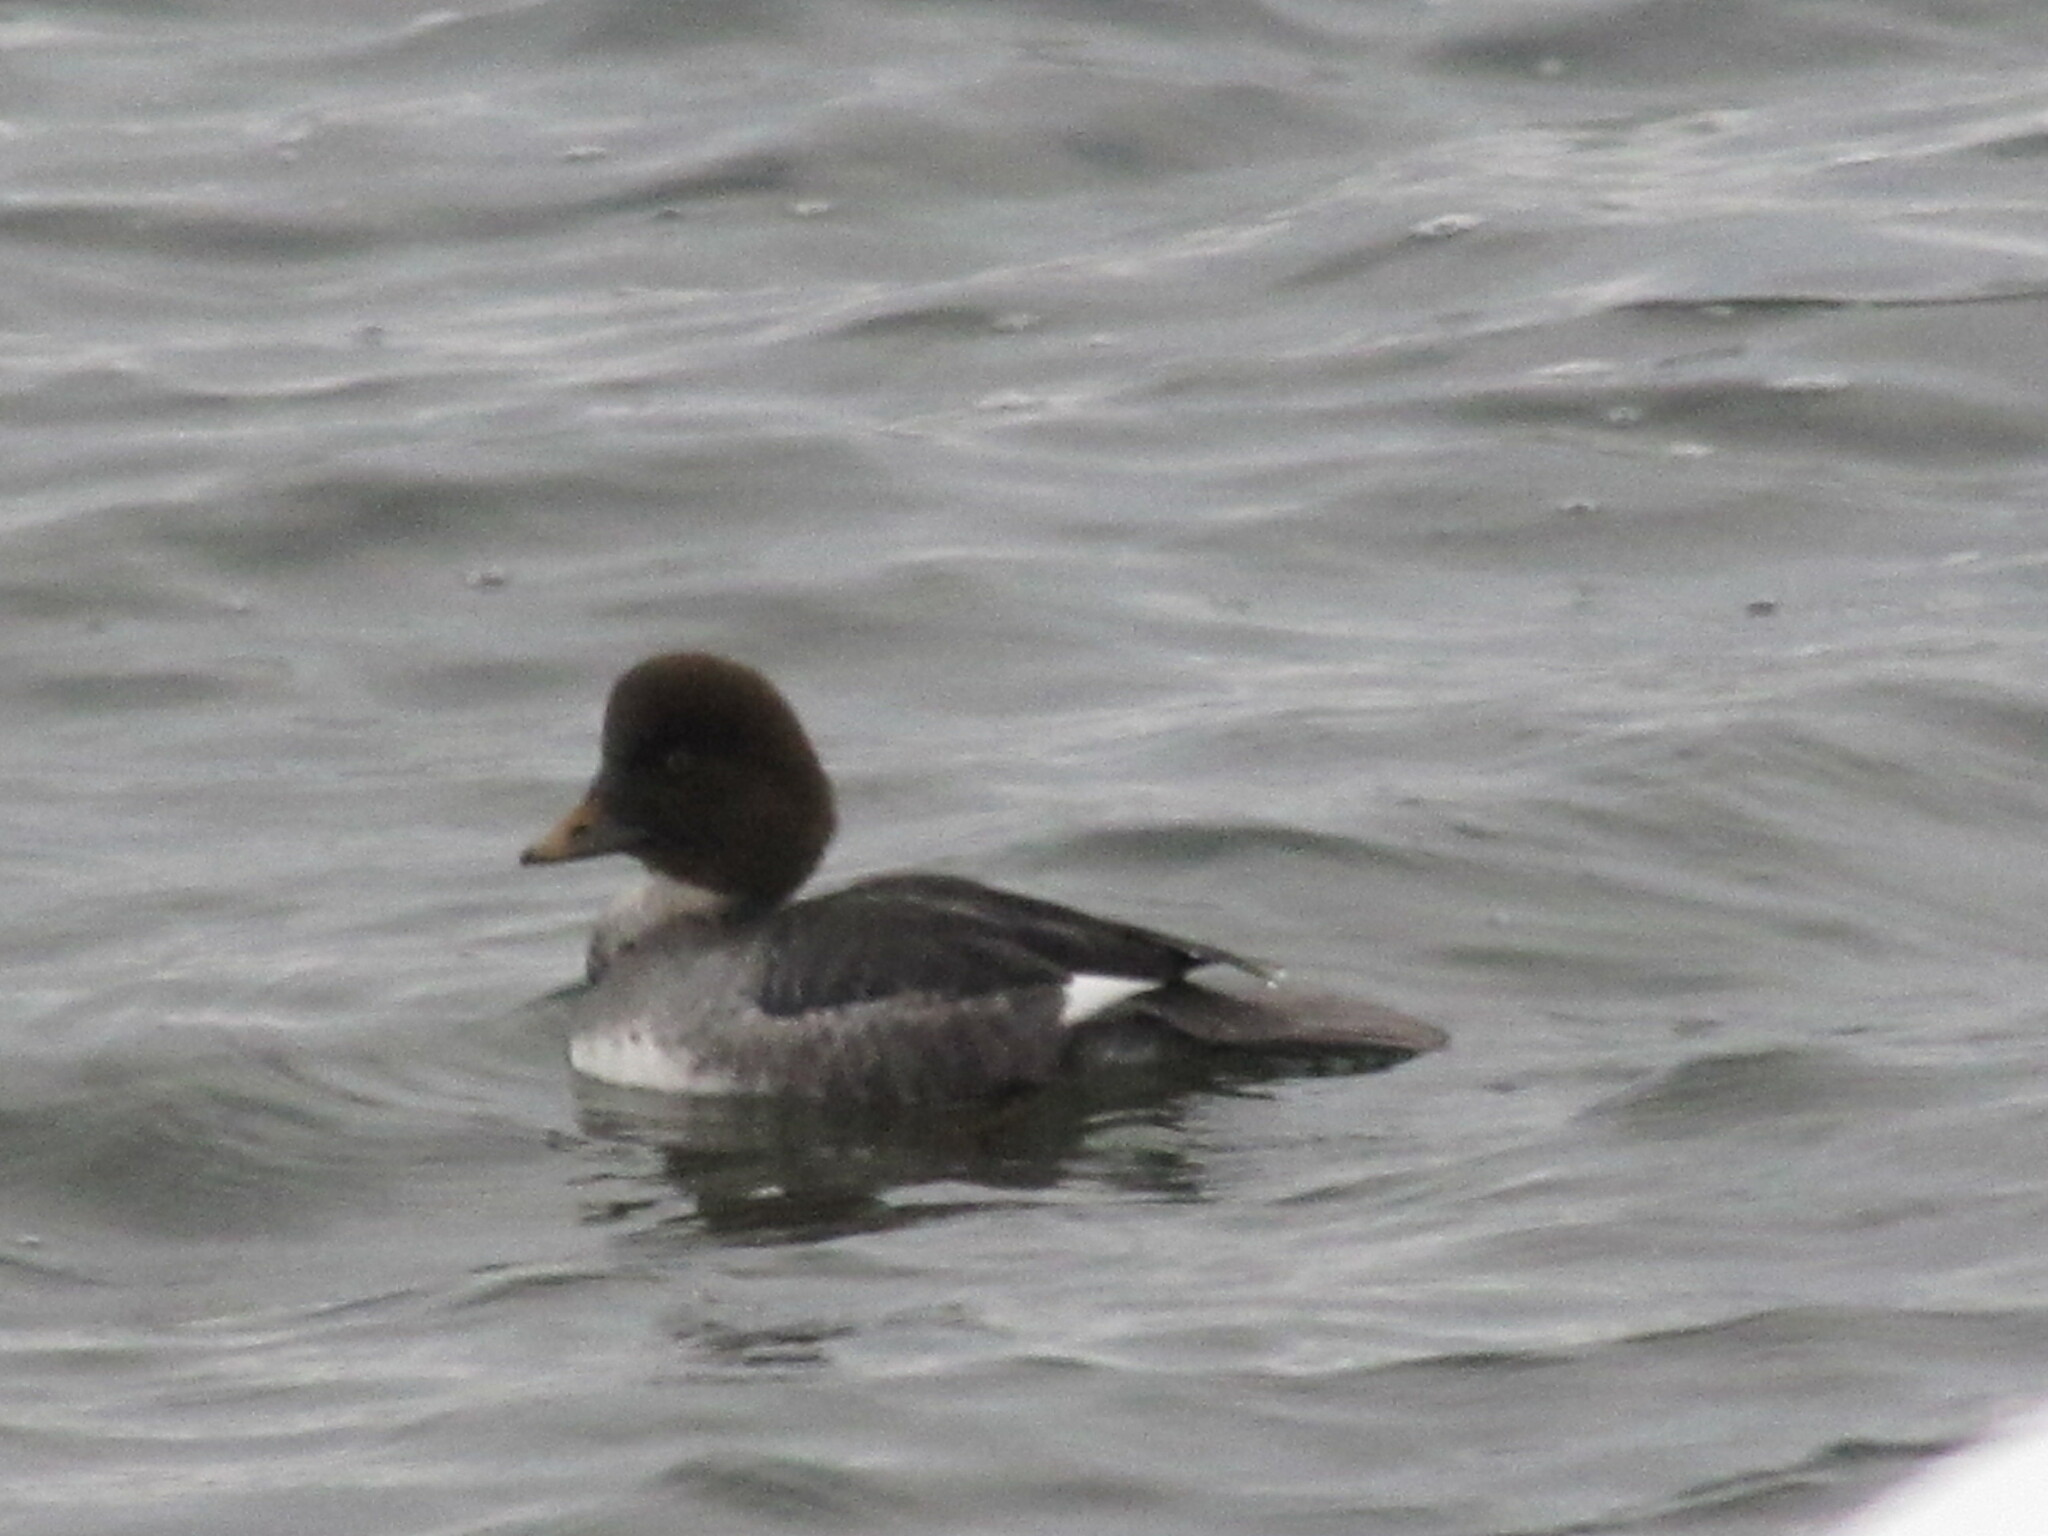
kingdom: Animalia
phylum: Chordata
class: Aves
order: Anseriformes
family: Anatidae
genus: Bucephala
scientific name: Bucephala islandica
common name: Barrow's goldeneye
